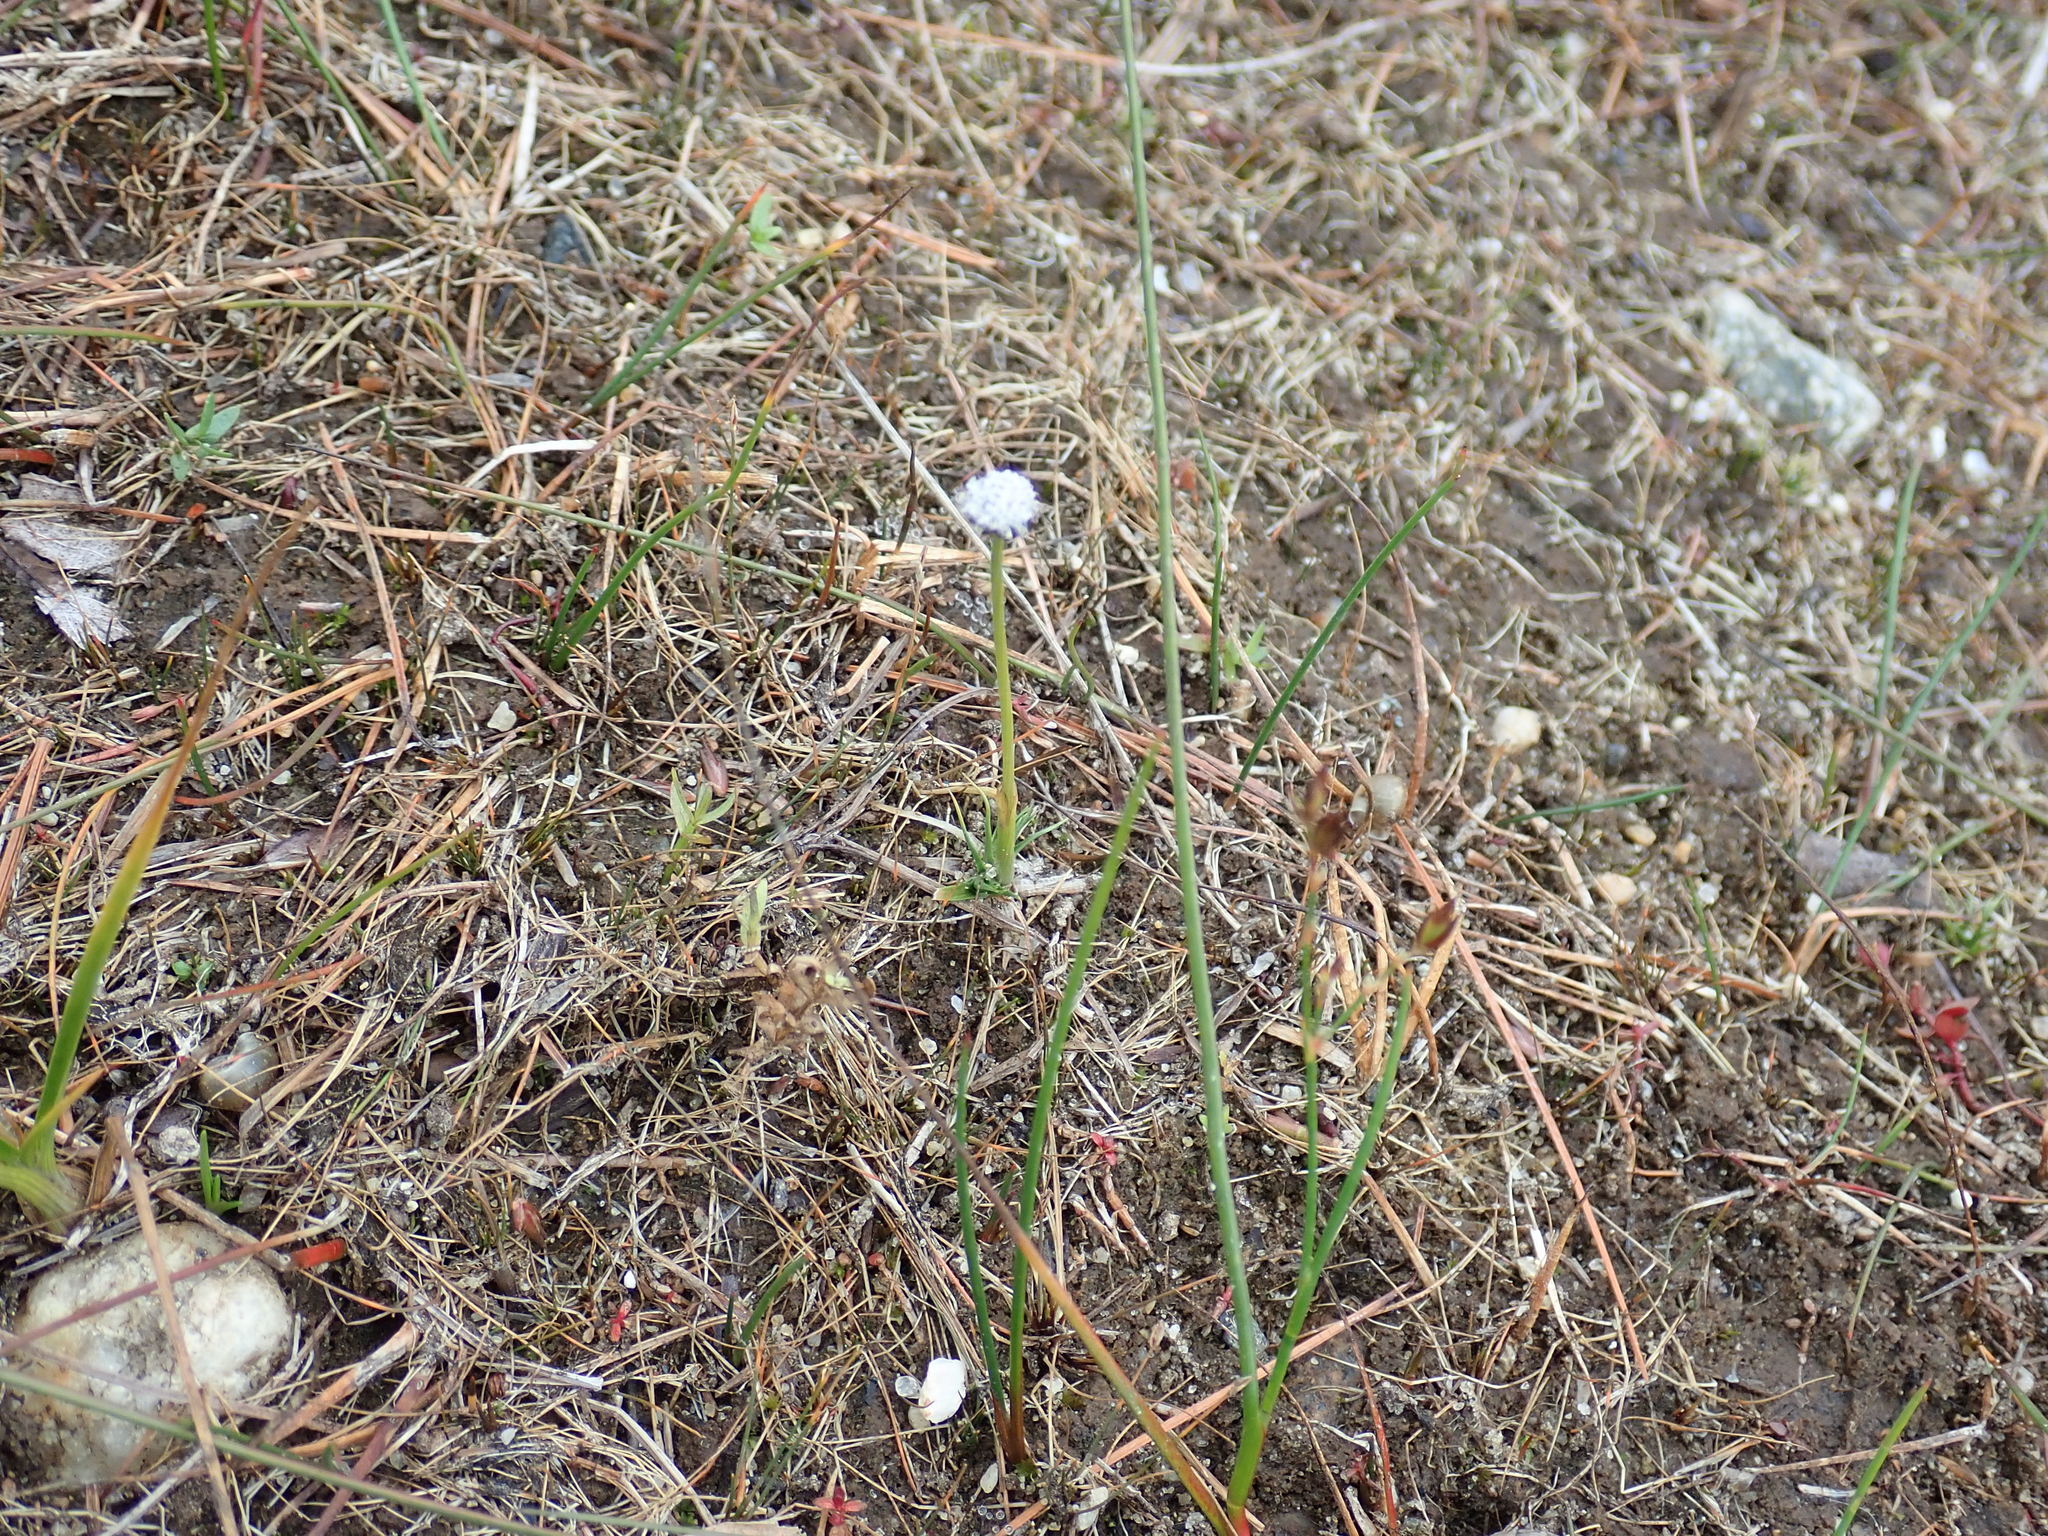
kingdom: Plantae
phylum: Tracheophyta
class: Liliopsida
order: Poales
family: Eriocaulaceae
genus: Eriocaulon
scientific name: Eriocaulon aquaticum
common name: Pipewort
